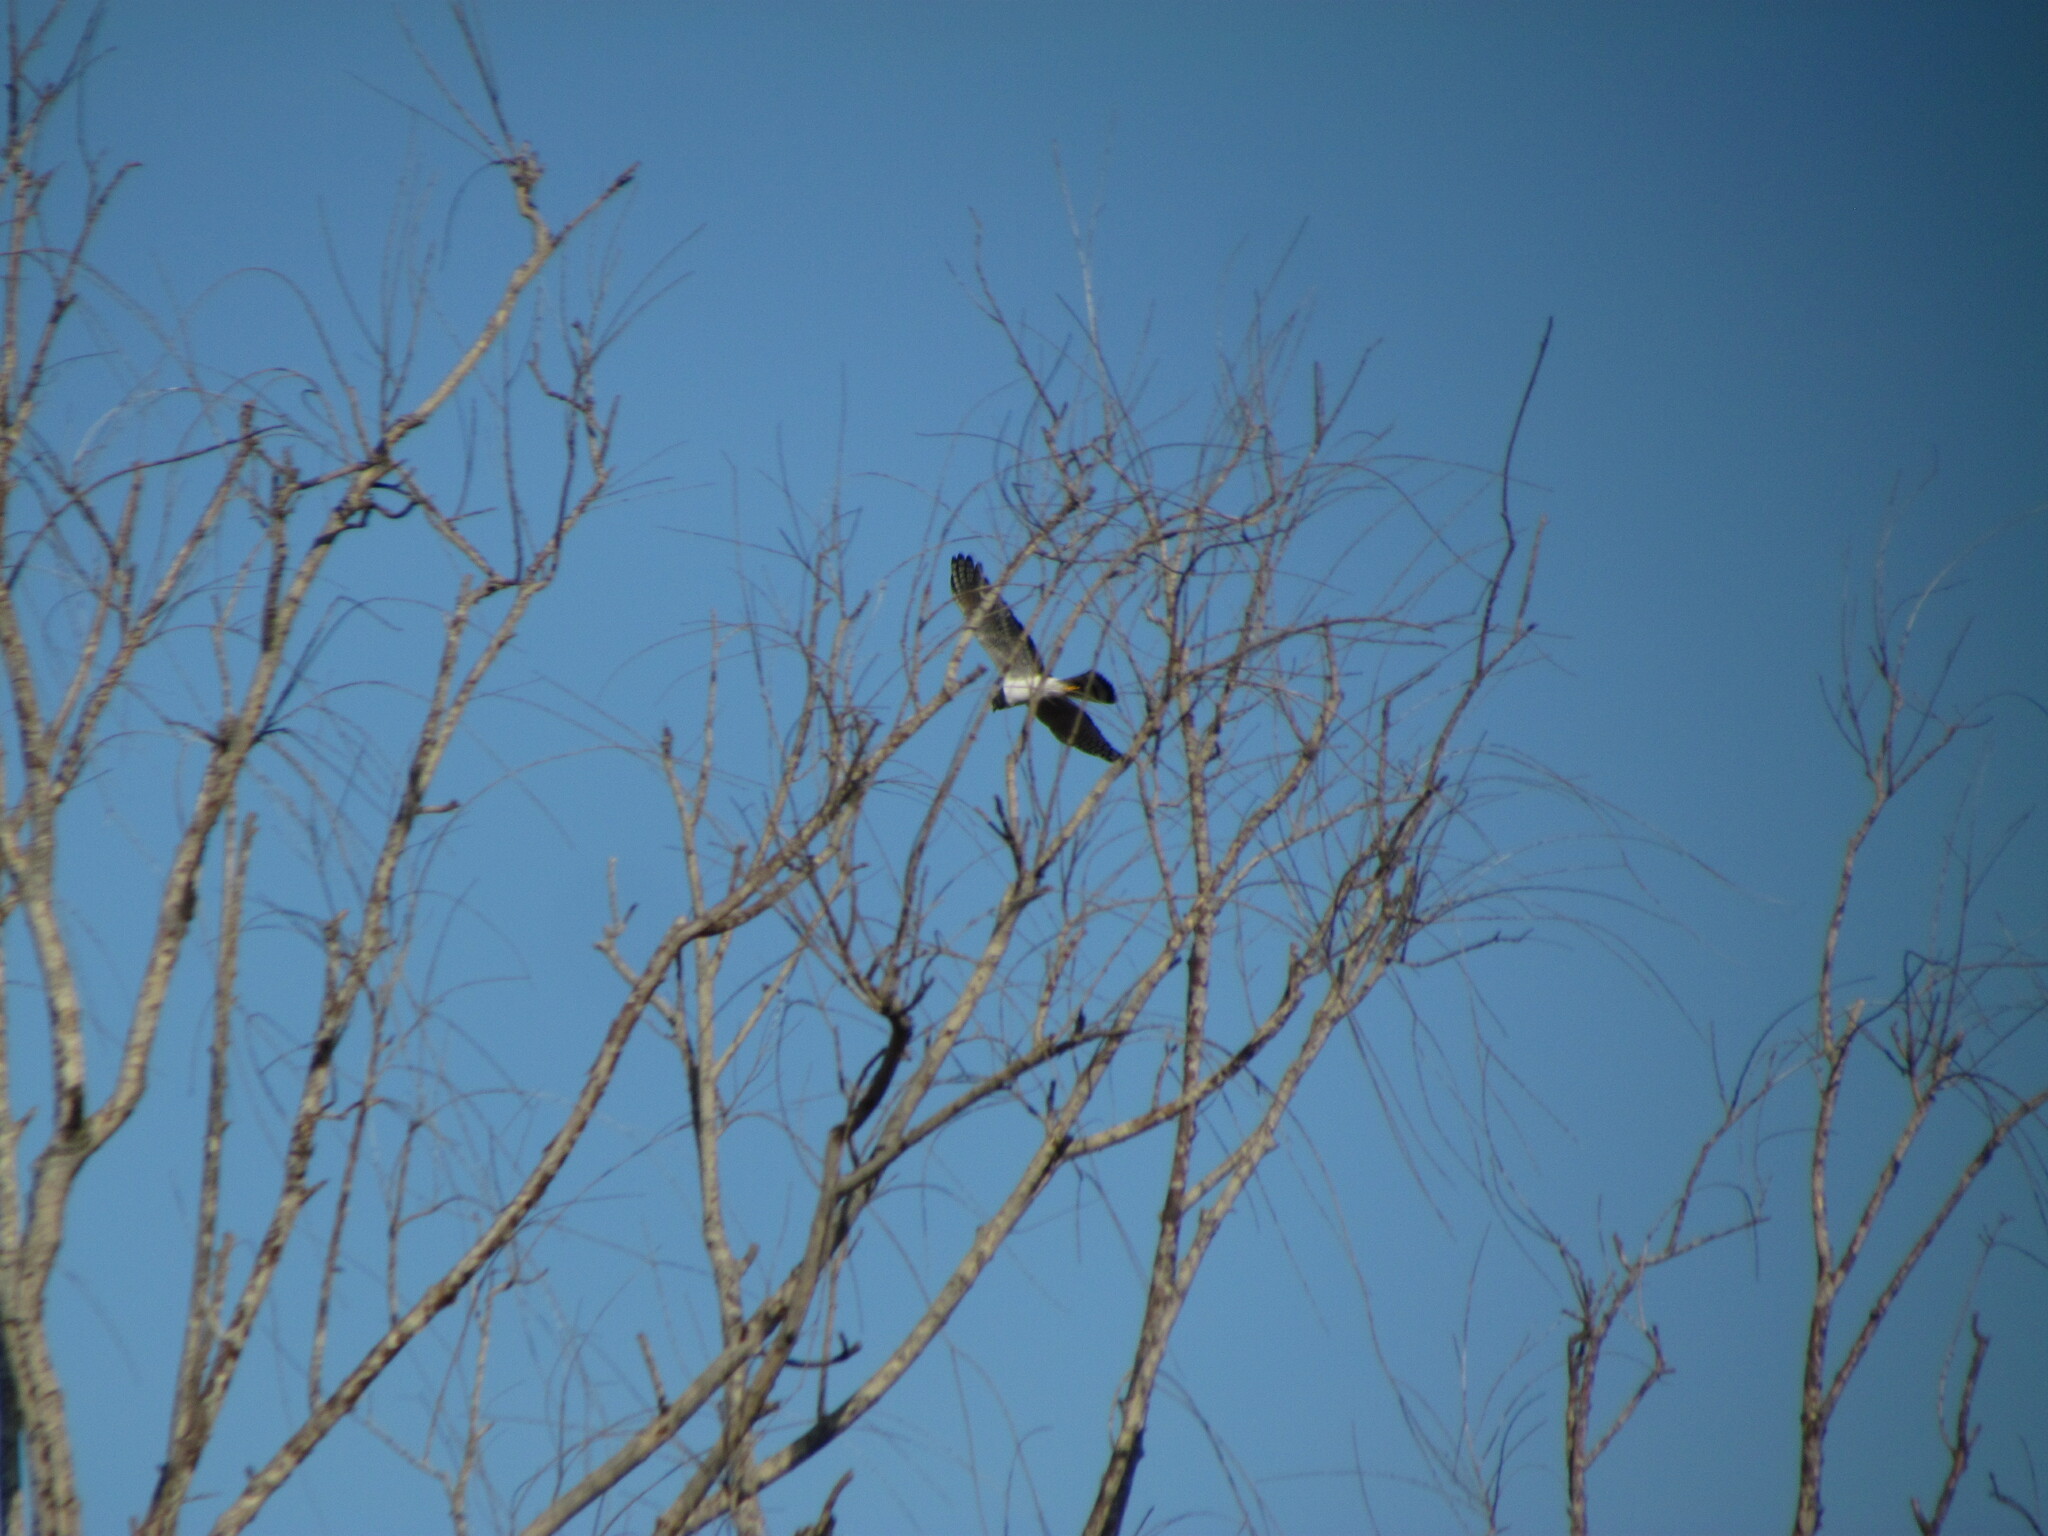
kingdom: Animalia
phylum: Chordata
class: Aves
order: Accipitriformes
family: Accipitridae
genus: Circus
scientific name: Circus buffoni
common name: Long-winged harrier
